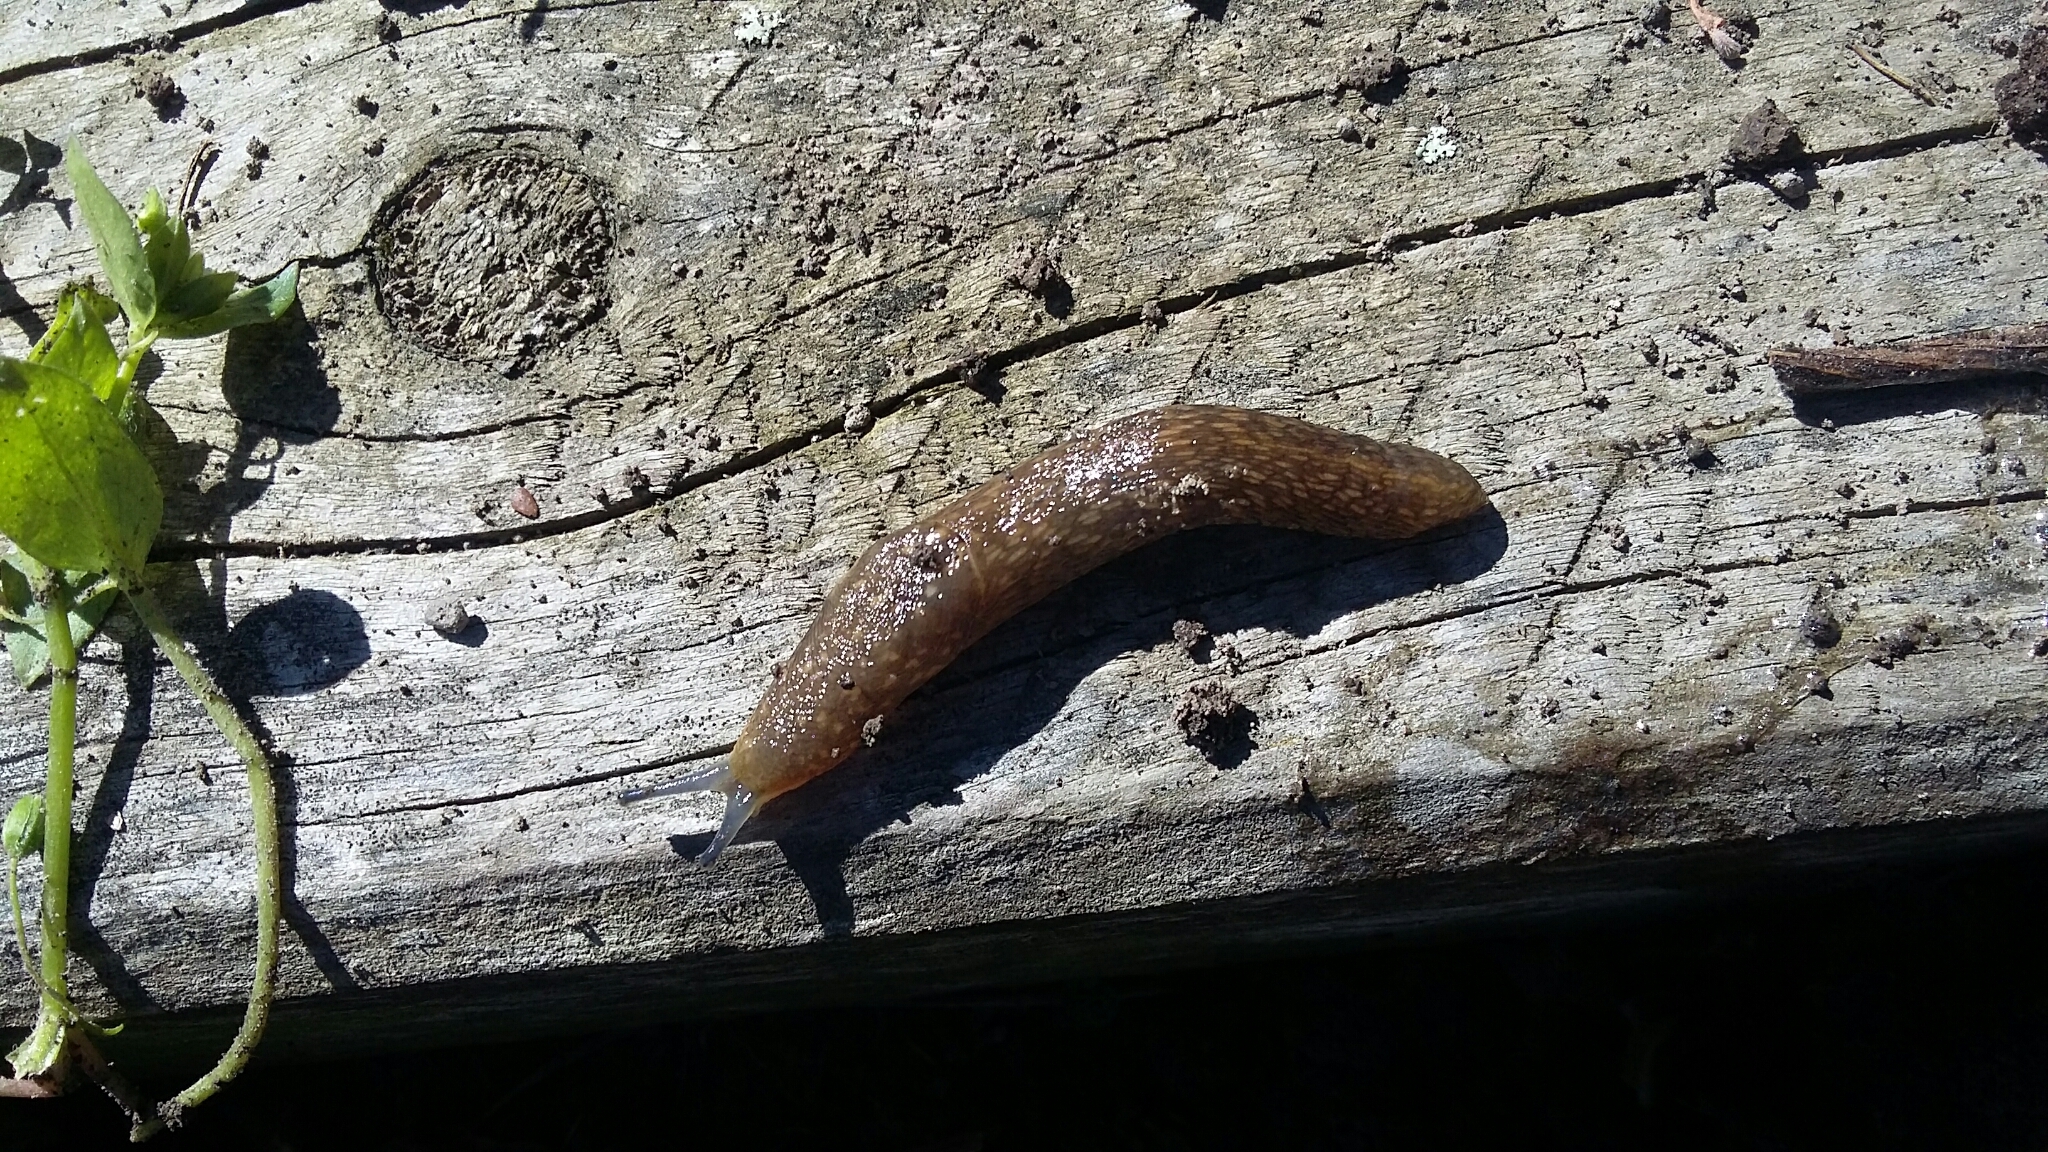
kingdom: Animalia
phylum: Mollusca
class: Gastropoda
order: Stylommatophora
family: Limacidae
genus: Limacus
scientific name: Limacus flavus
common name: Yellow gardenslug
